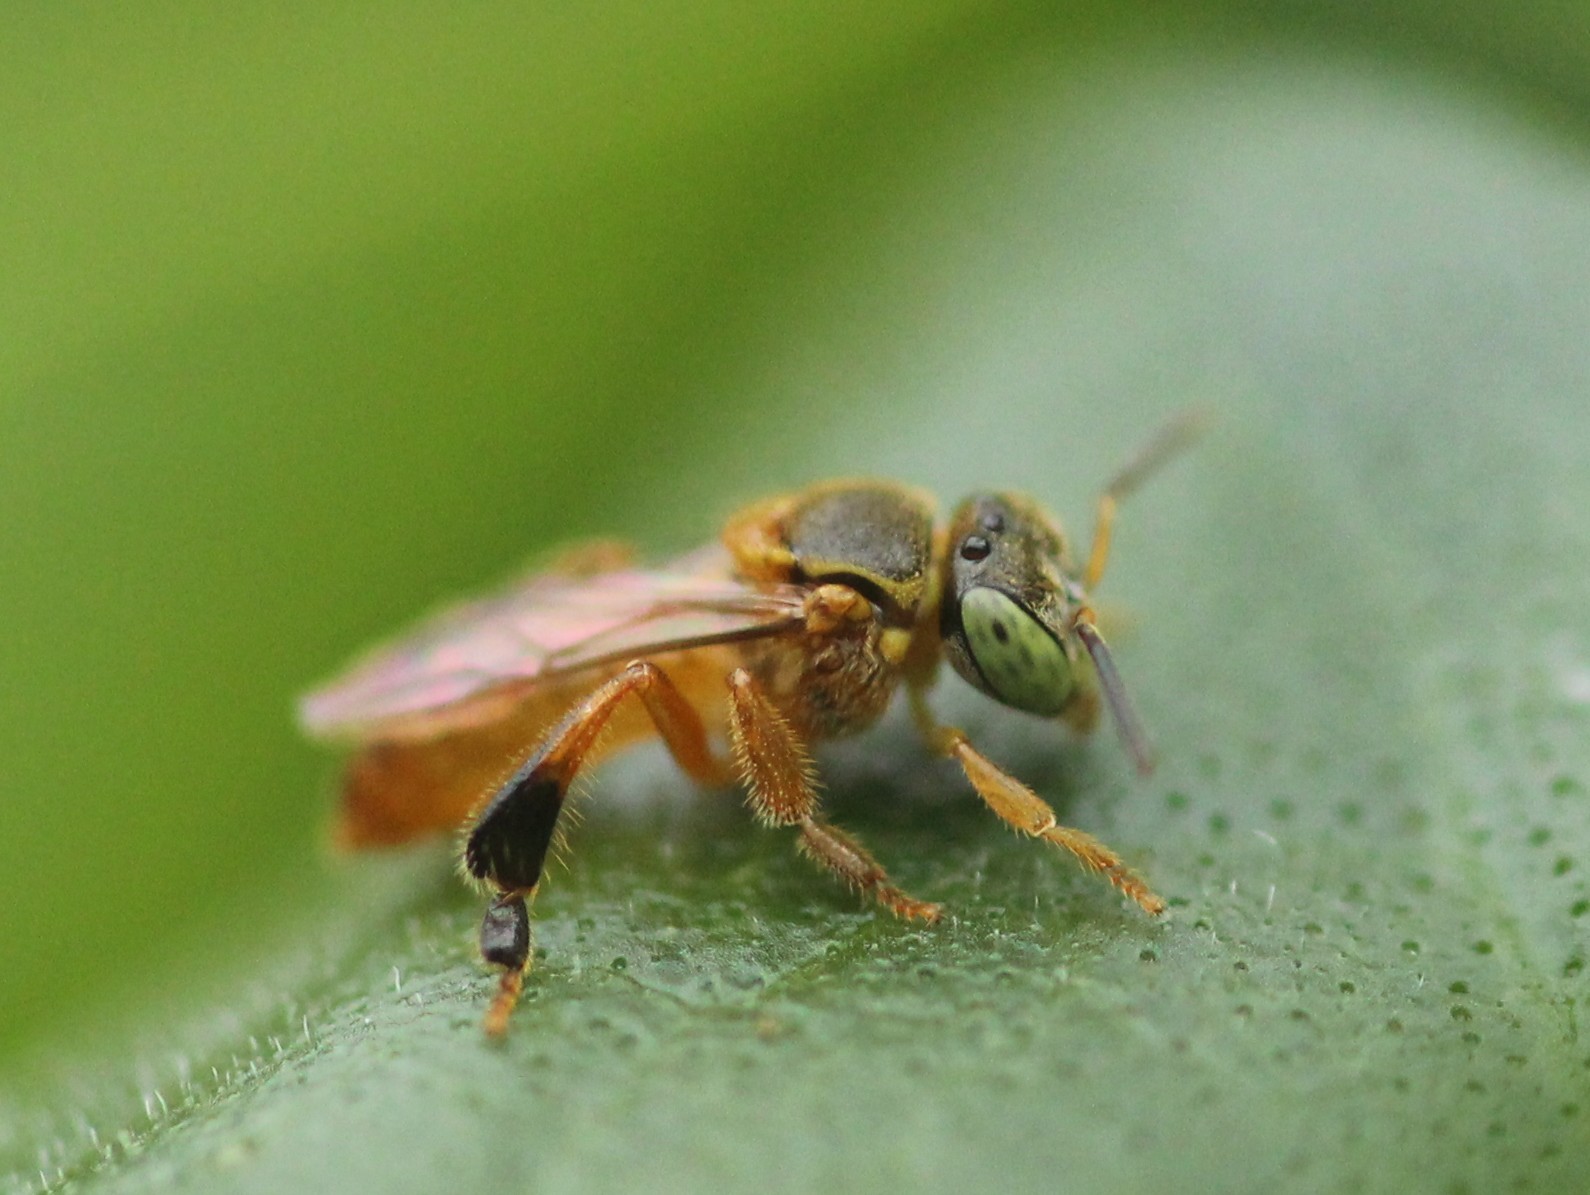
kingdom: Animalia
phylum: Arthropoda
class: Insecta
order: Hymenoptera
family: Apidae
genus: Tetragonisca
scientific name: Tetragonisca fiebrigi
